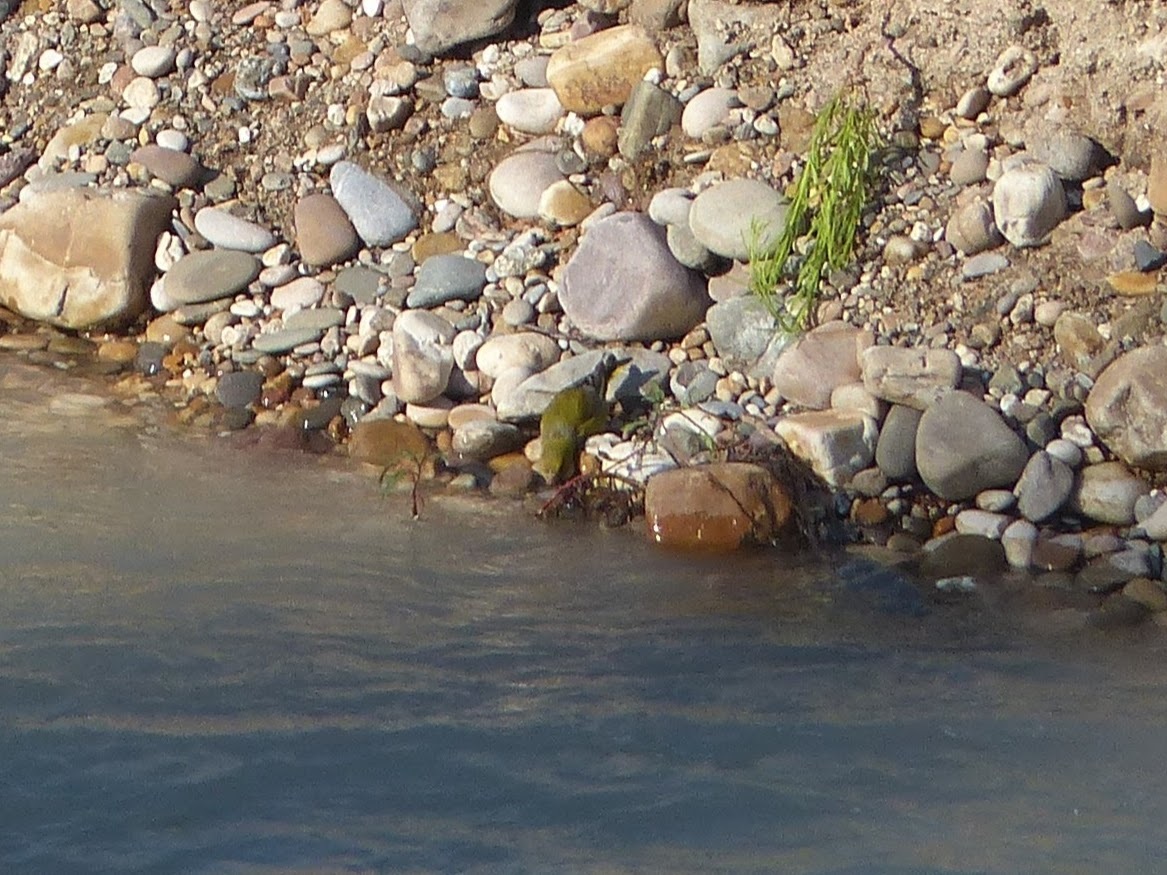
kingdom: Plantae
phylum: Tracheophyta
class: Liliopsida
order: Poales
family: Poaceae
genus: Chloris
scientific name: Chloris chloris
